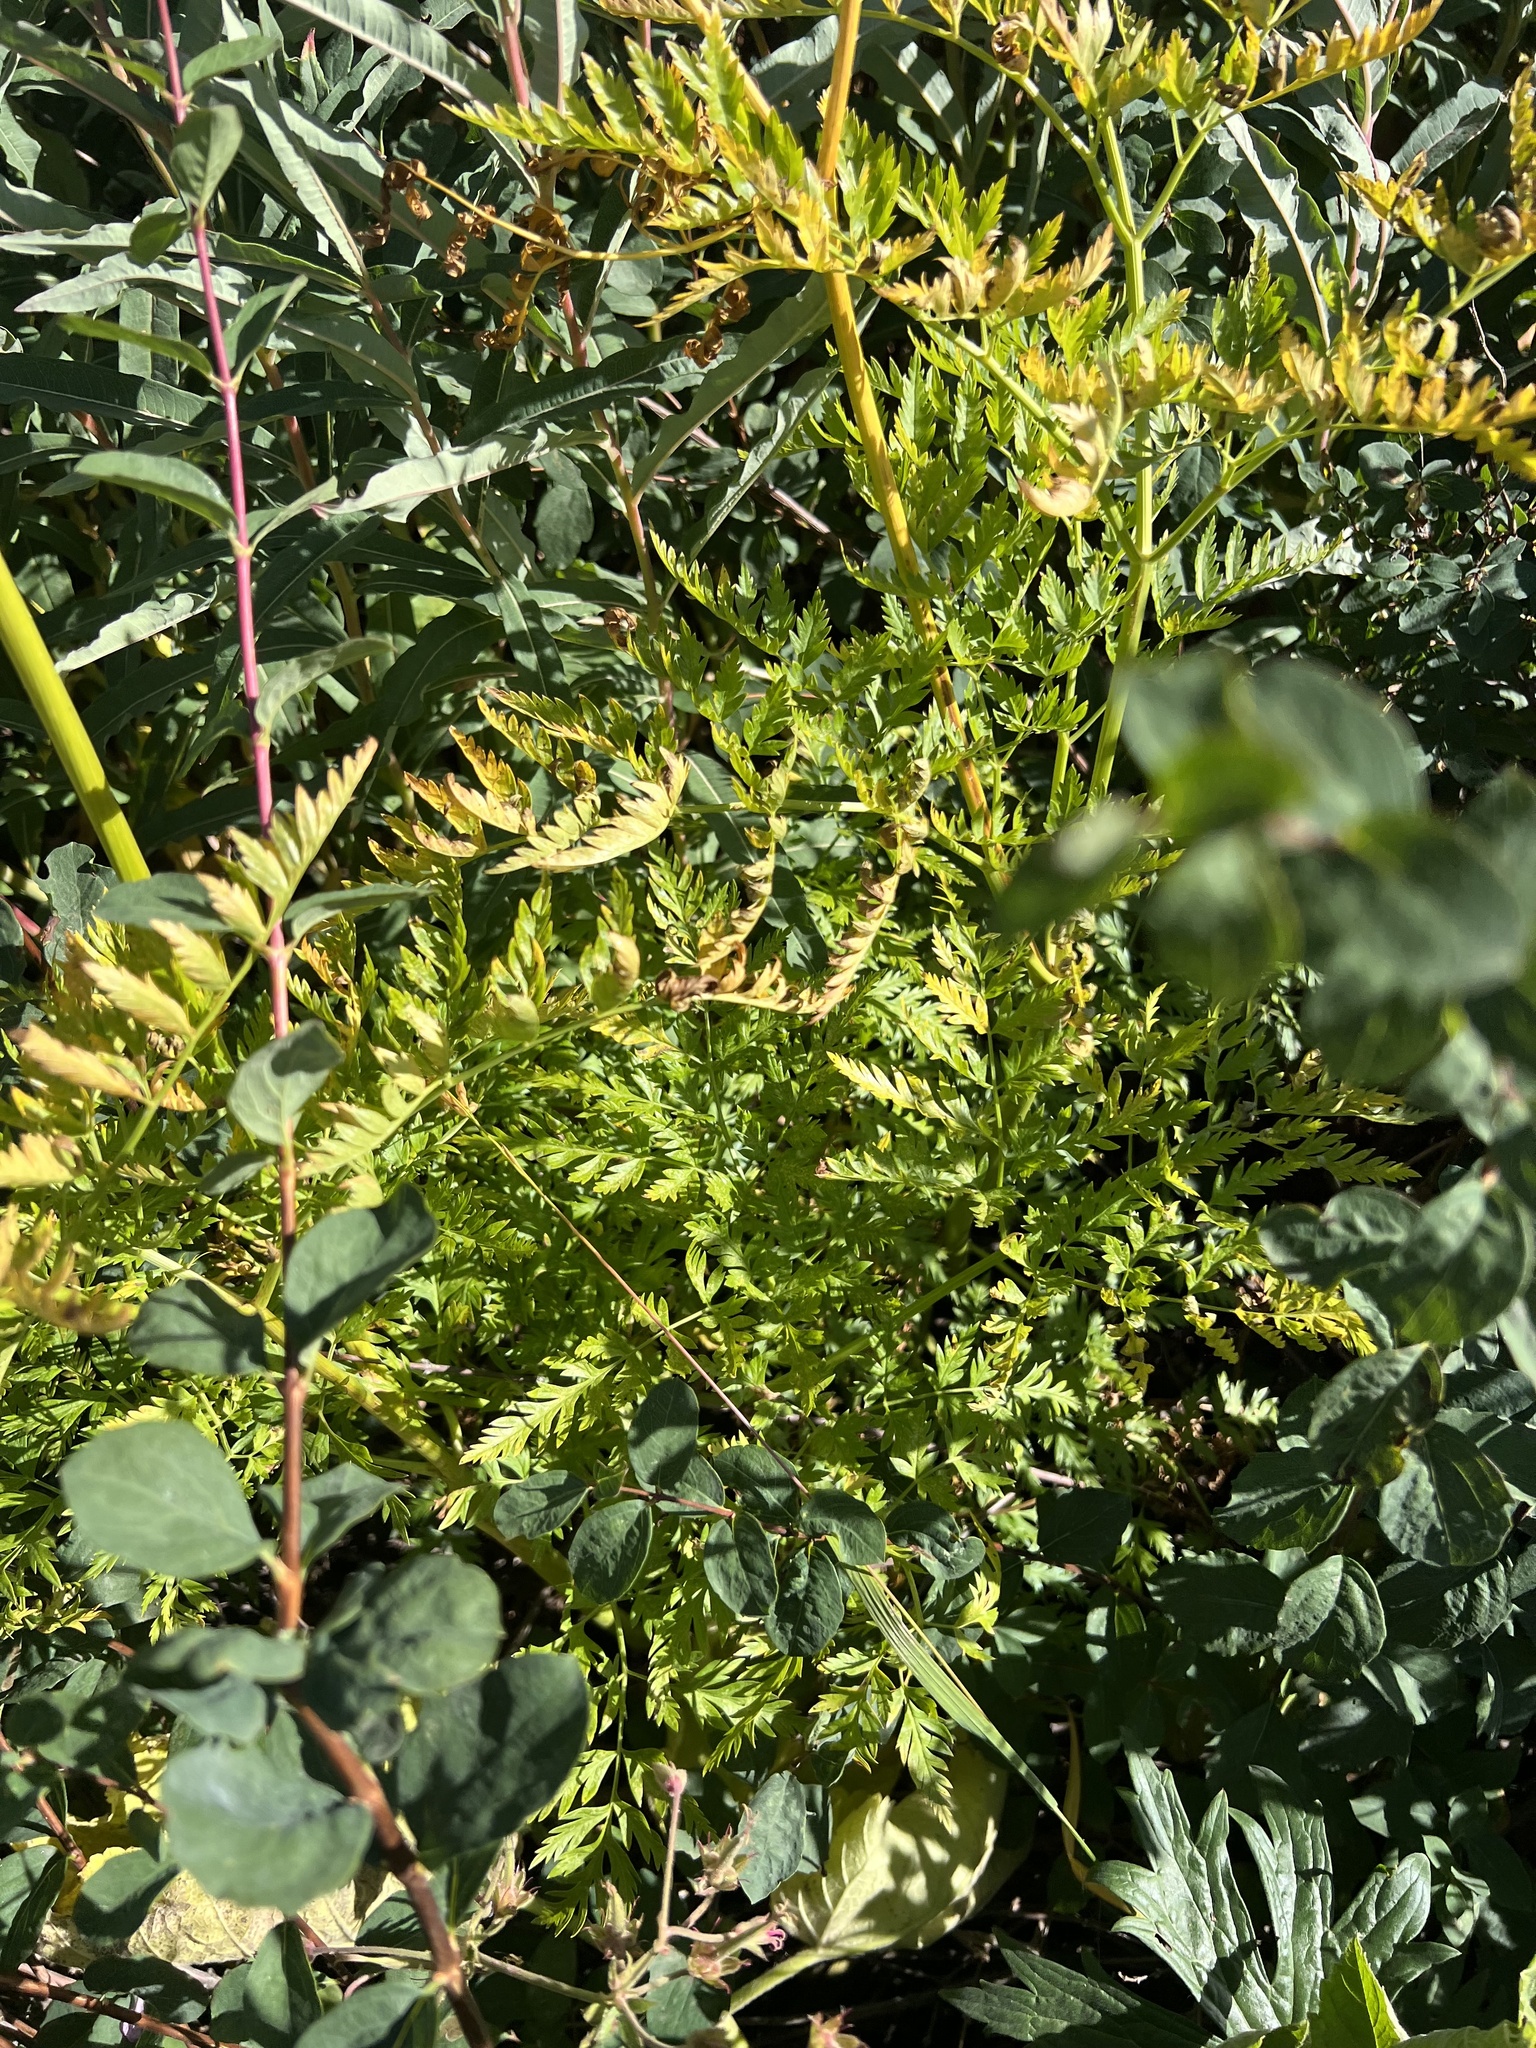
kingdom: Plantae
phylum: Tracheophyta
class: Magnoliopsida
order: Apiales
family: Apiaceae
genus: Ligusticum
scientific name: Ligusticum porteri
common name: Mountain lovage
